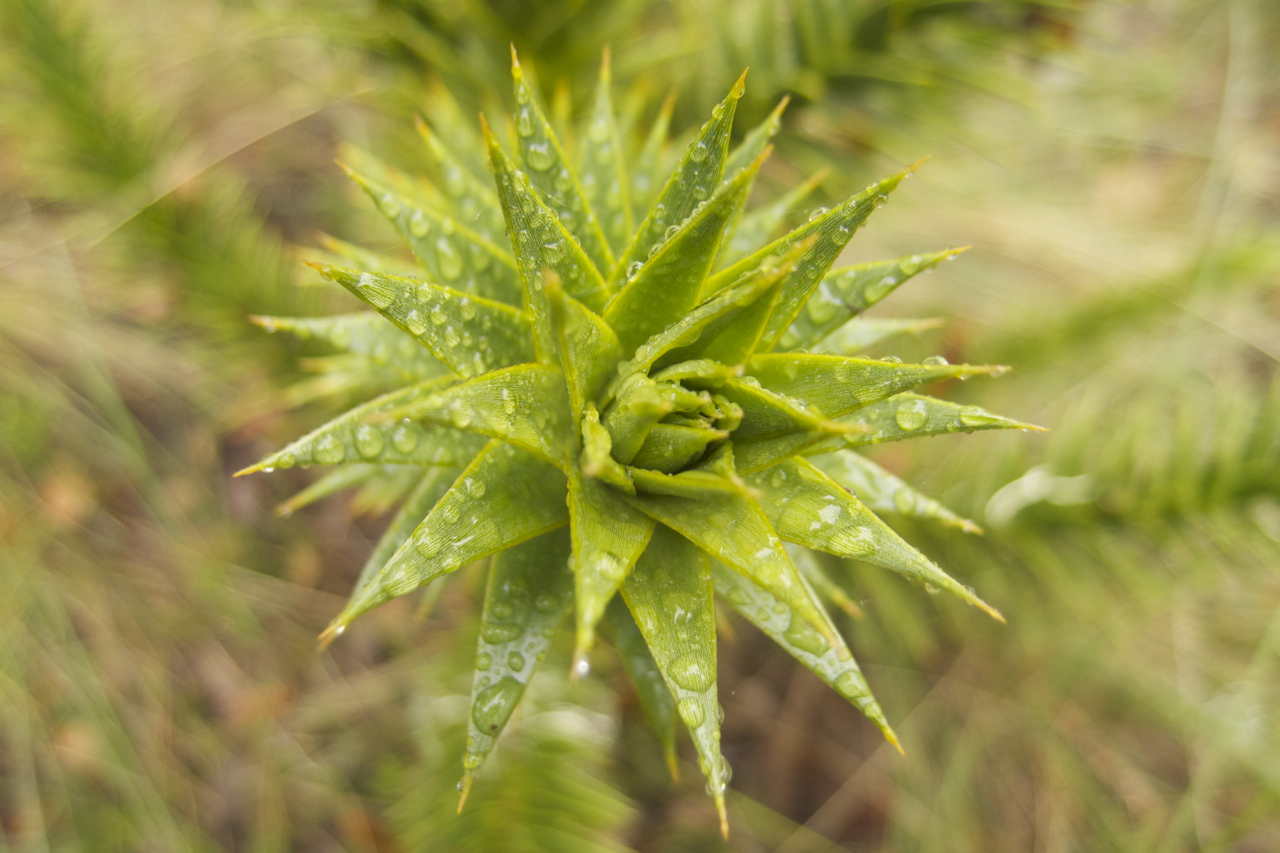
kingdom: Plantae
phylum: Tracheophyta
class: Pinopsida
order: Pinales
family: Araucariaceae
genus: Araucaria
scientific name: Araucaria araucana
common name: Monkey-puzzle
